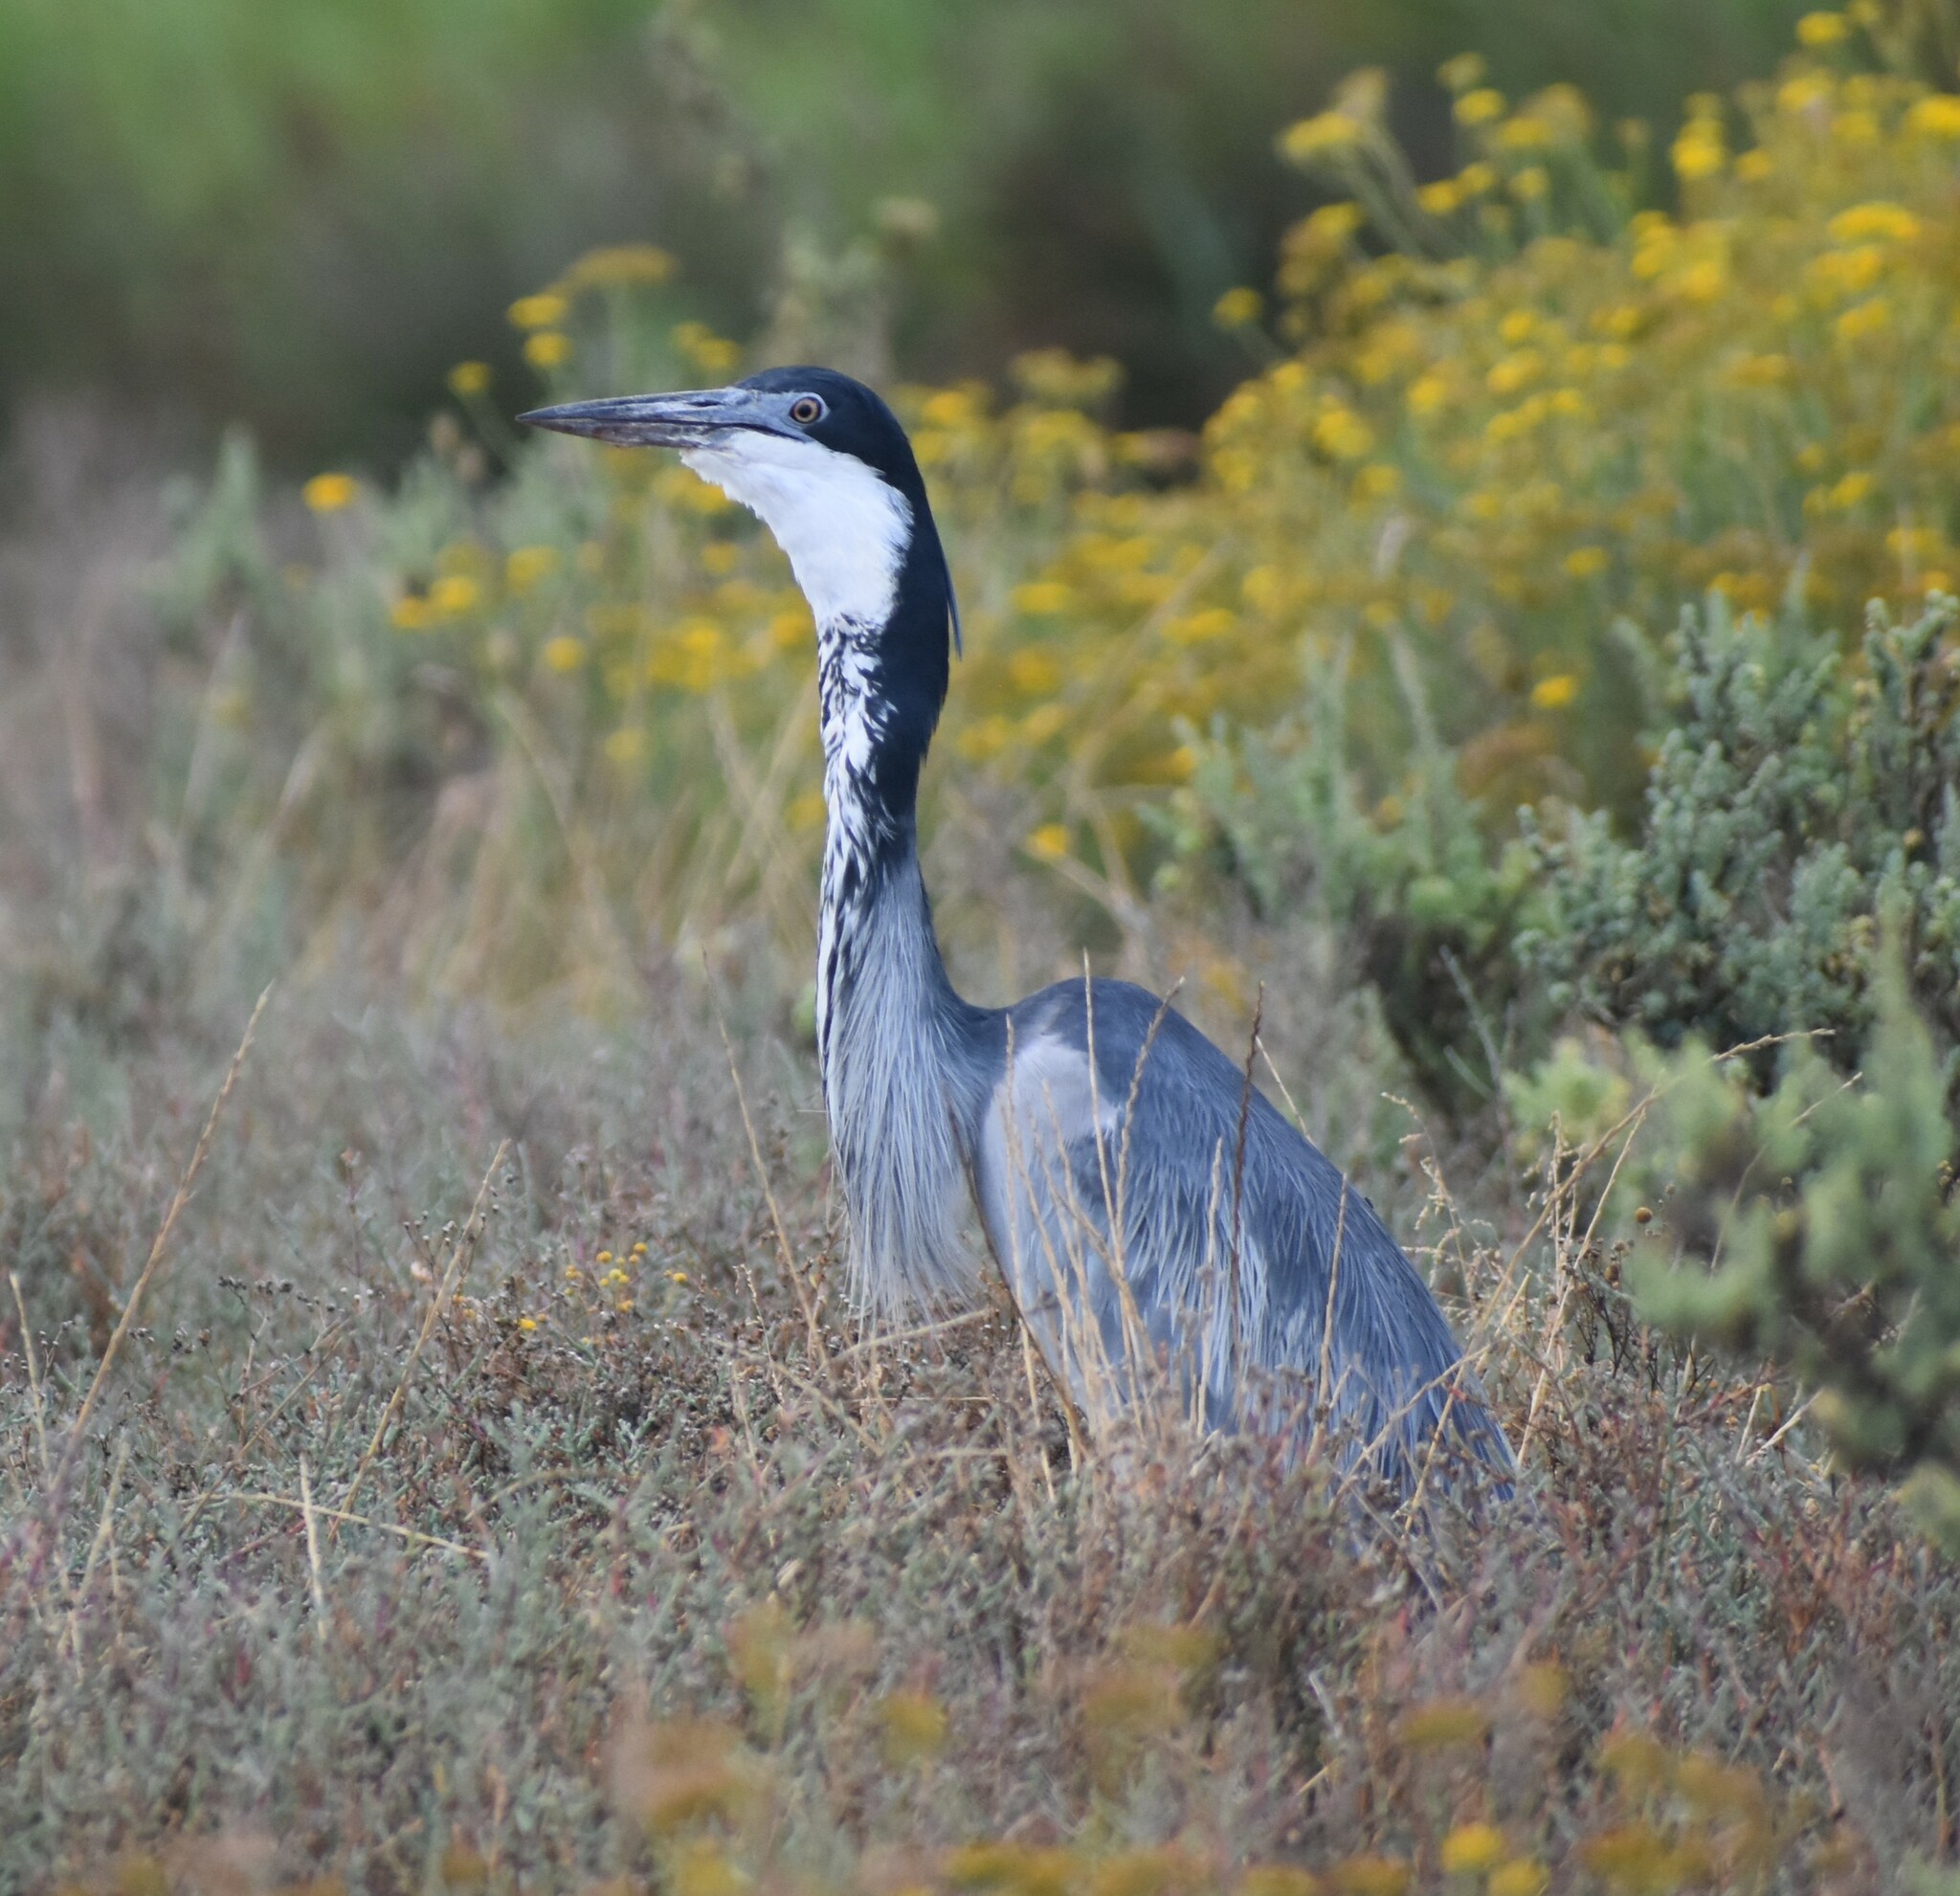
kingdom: Animalia
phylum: Chordata
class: Aves
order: Pelecaniformes
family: Ardeidae
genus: Ardea
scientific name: Ardea melanocephala
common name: Black-headed heron
